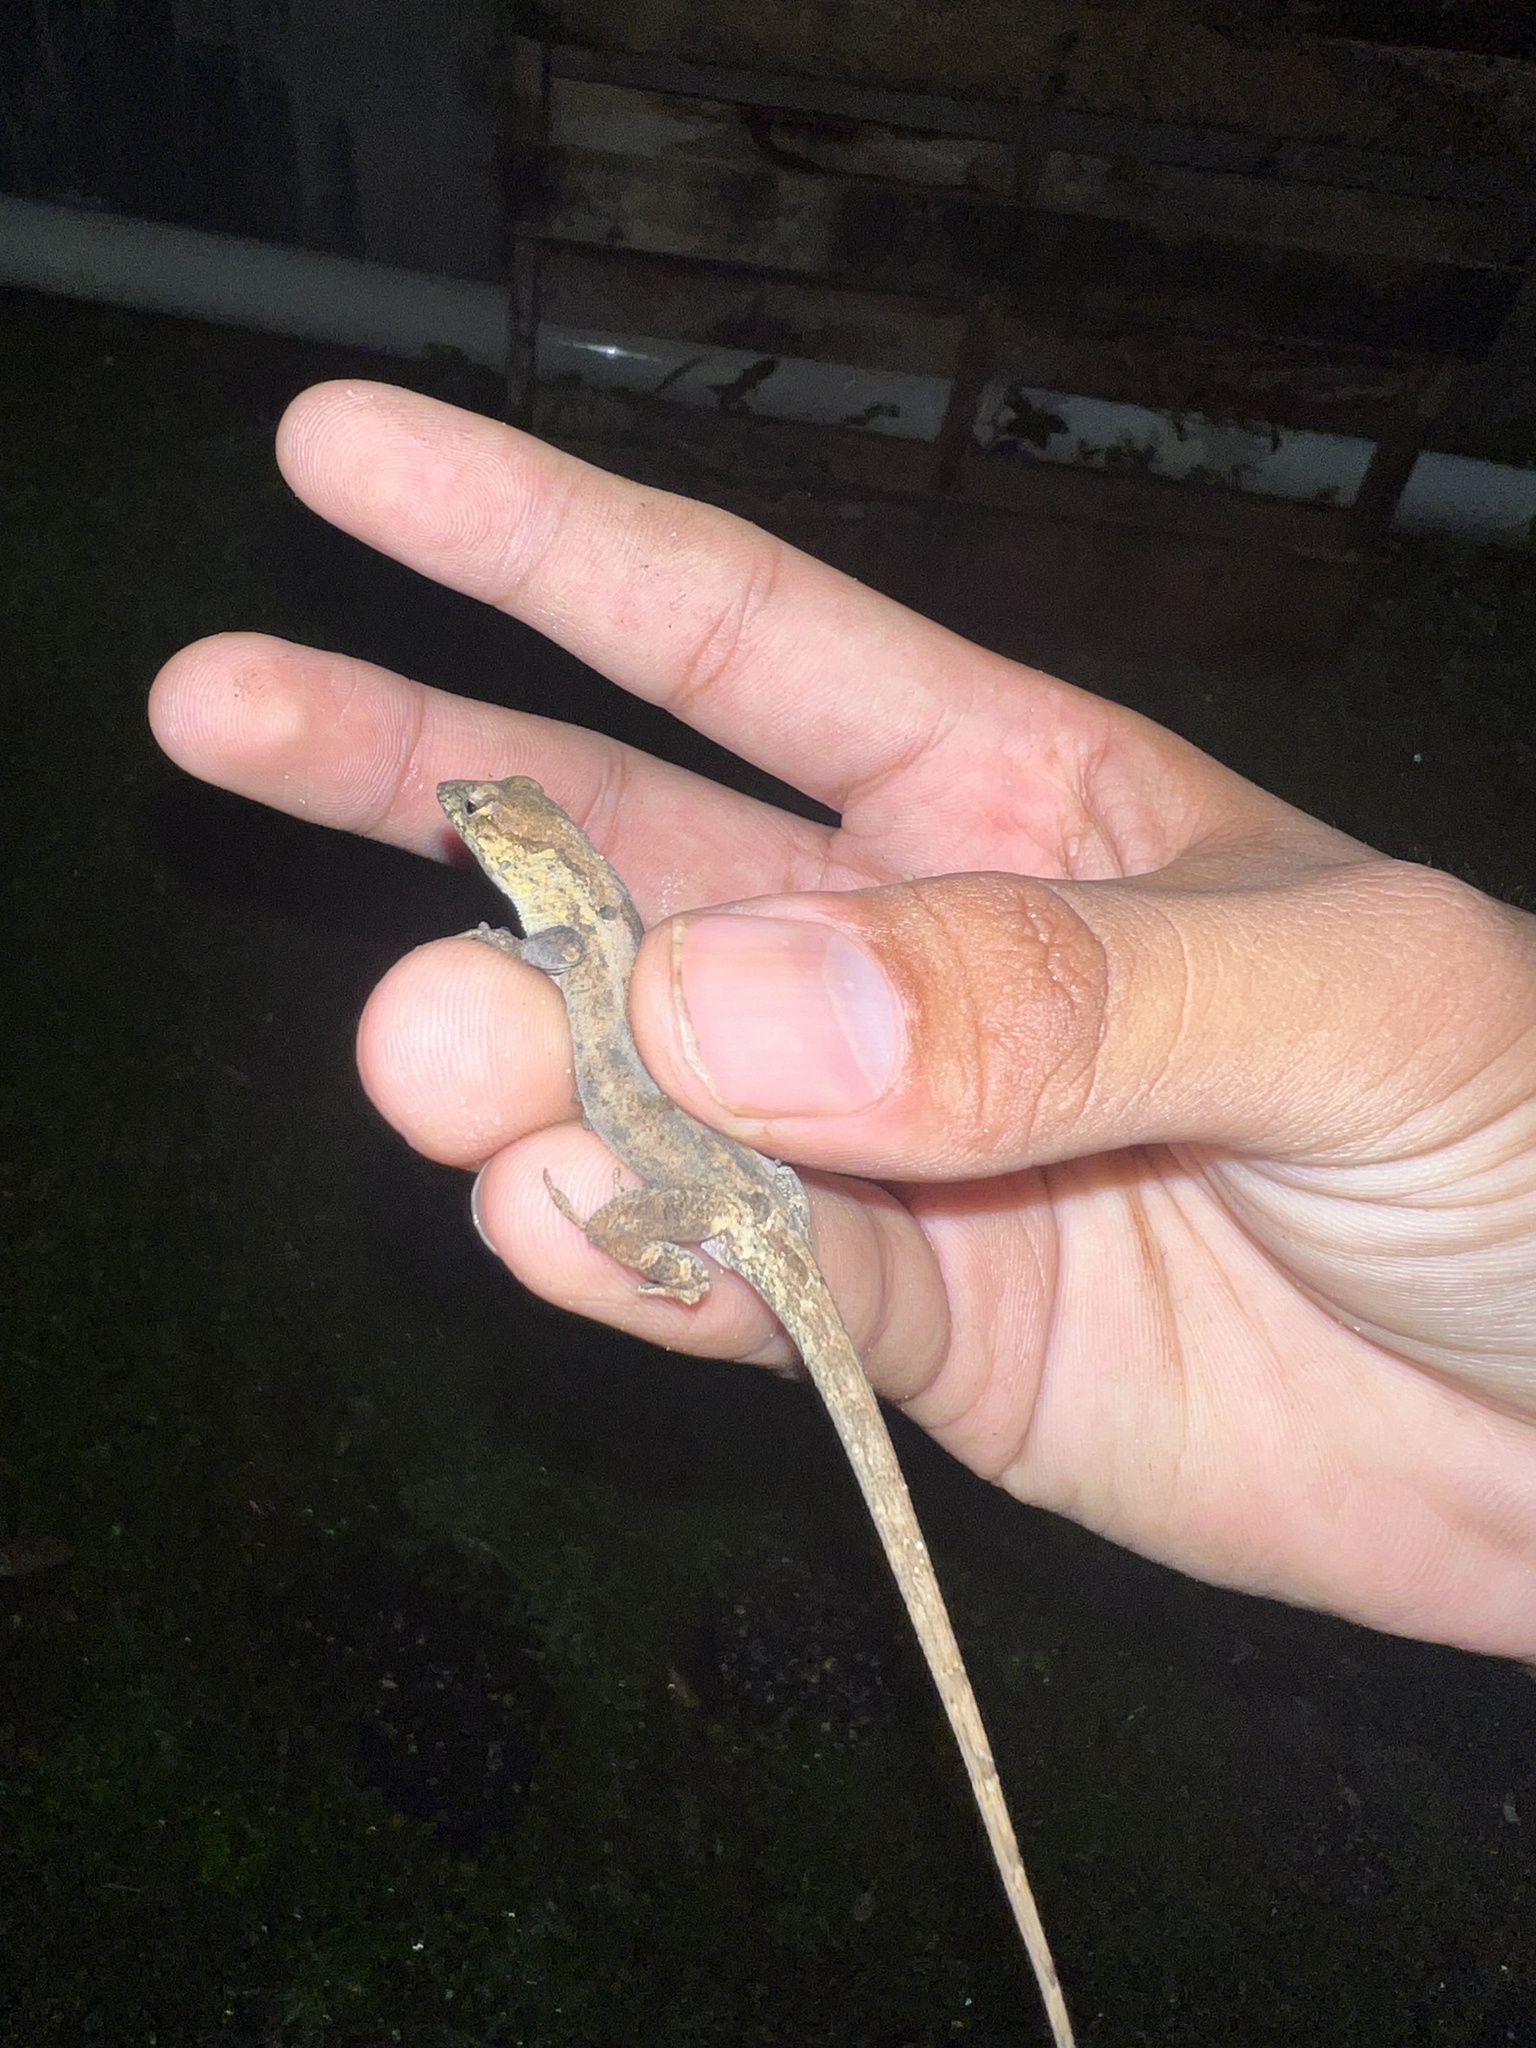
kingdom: Animalia
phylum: Chordata
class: Squamata
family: Dactyloidae
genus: Anolis
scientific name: Anolis sagrei
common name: Brown anole
